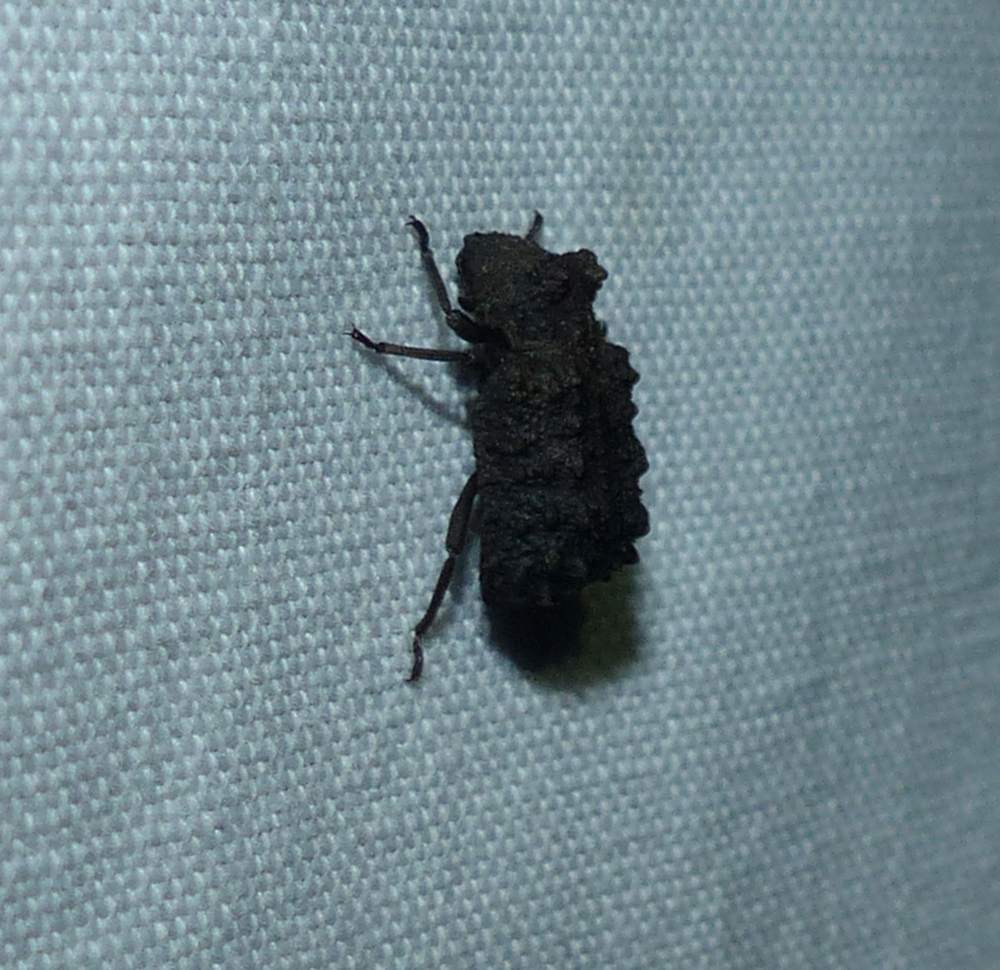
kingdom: Animalia
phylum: Arthropoda
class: Insecta
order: Coleoptera
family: Tenebrionidae
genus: Gnatocerus
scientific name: Gnatocerus cornutus
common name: Broad-horned flour beetle
